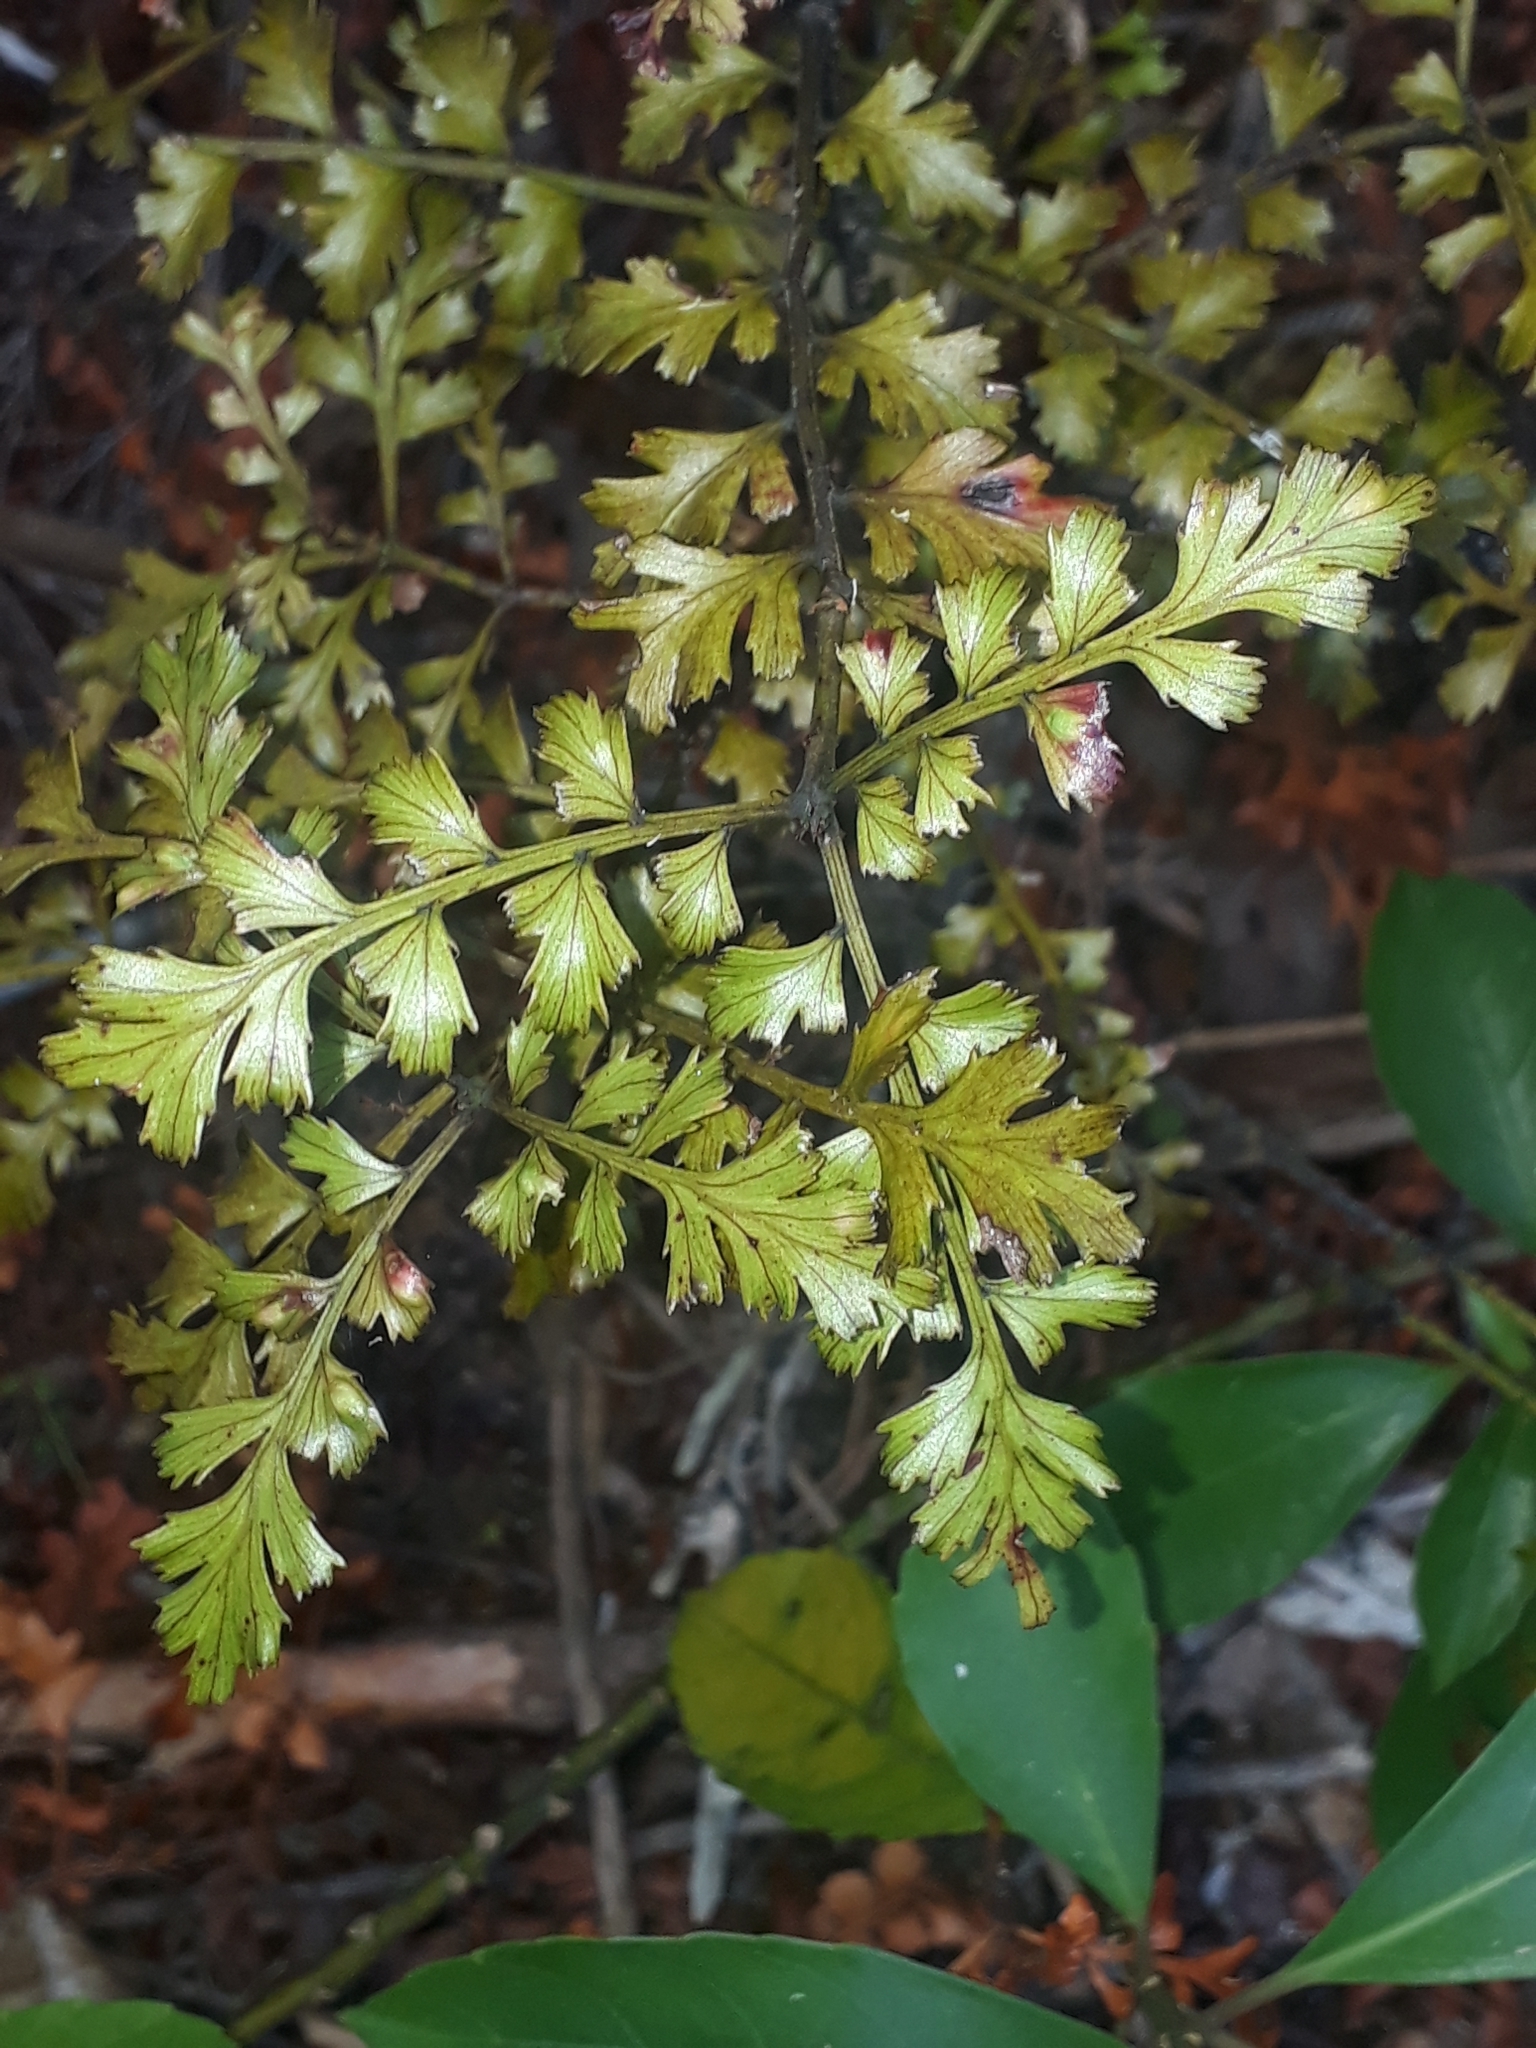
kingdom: Plantae
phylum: Tracheophyta
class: Pinopsida
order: Pinales
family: Phyllocladaceae
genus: Phyllocladus
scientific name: Phyllocladus trichomanoides
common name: Celery pine
